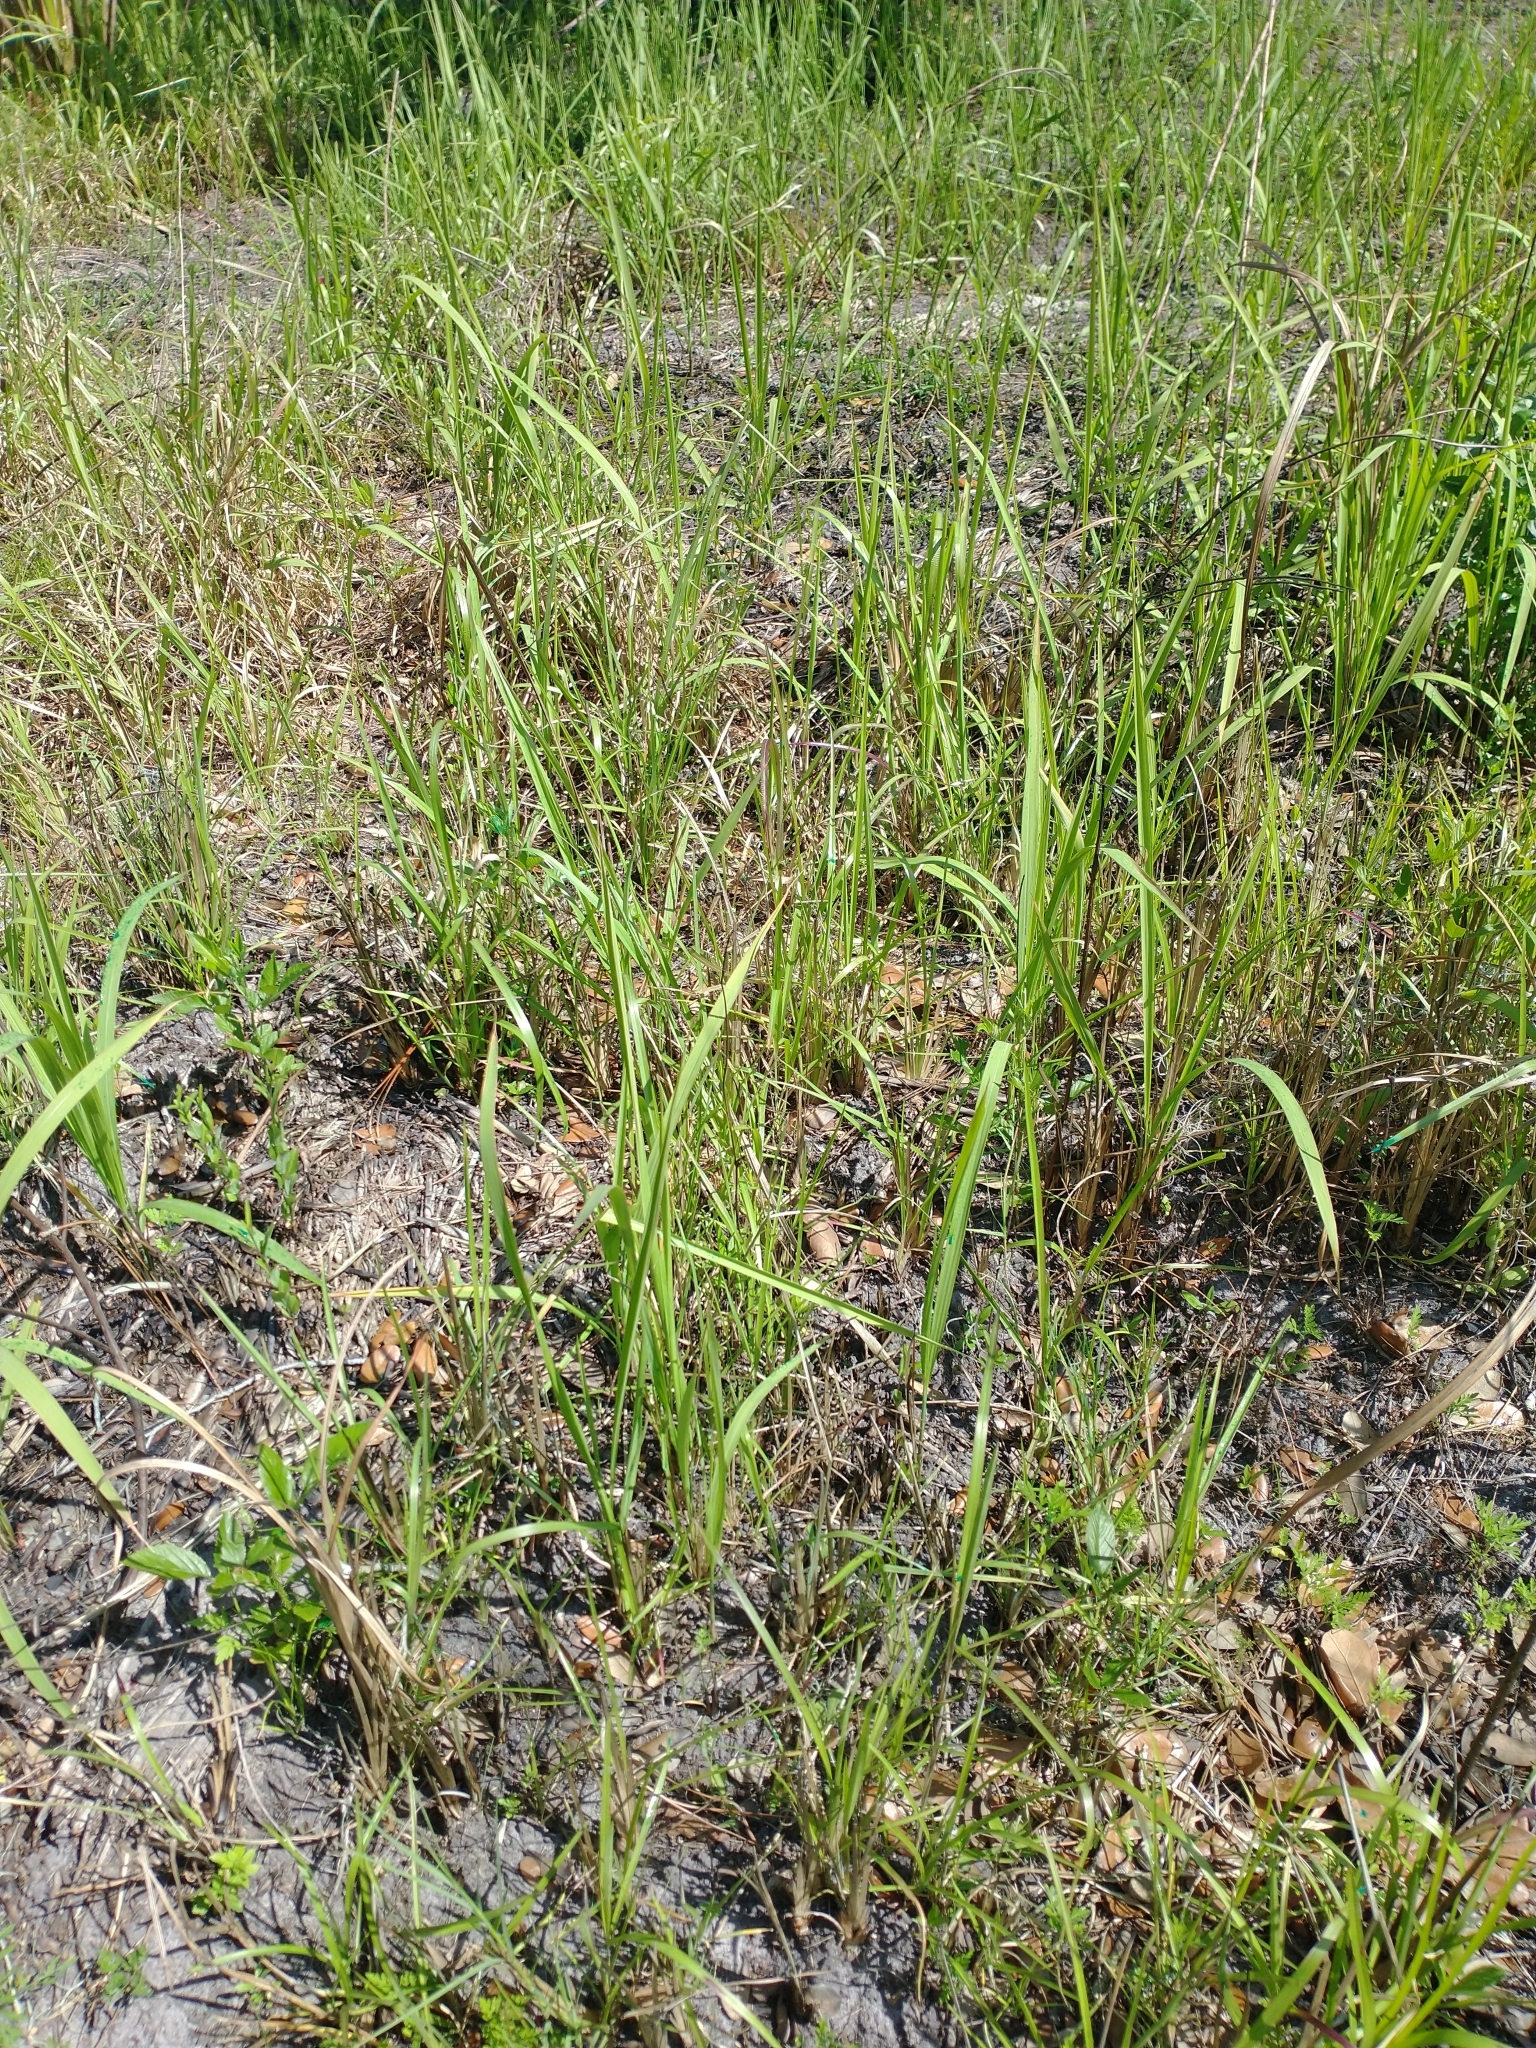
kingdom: Plantae
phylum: Tracheophyta
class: Liliopsida
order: Poales
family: Poaceae
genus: Imperata
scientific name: Imperata cylindrica
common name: Cogongrass
